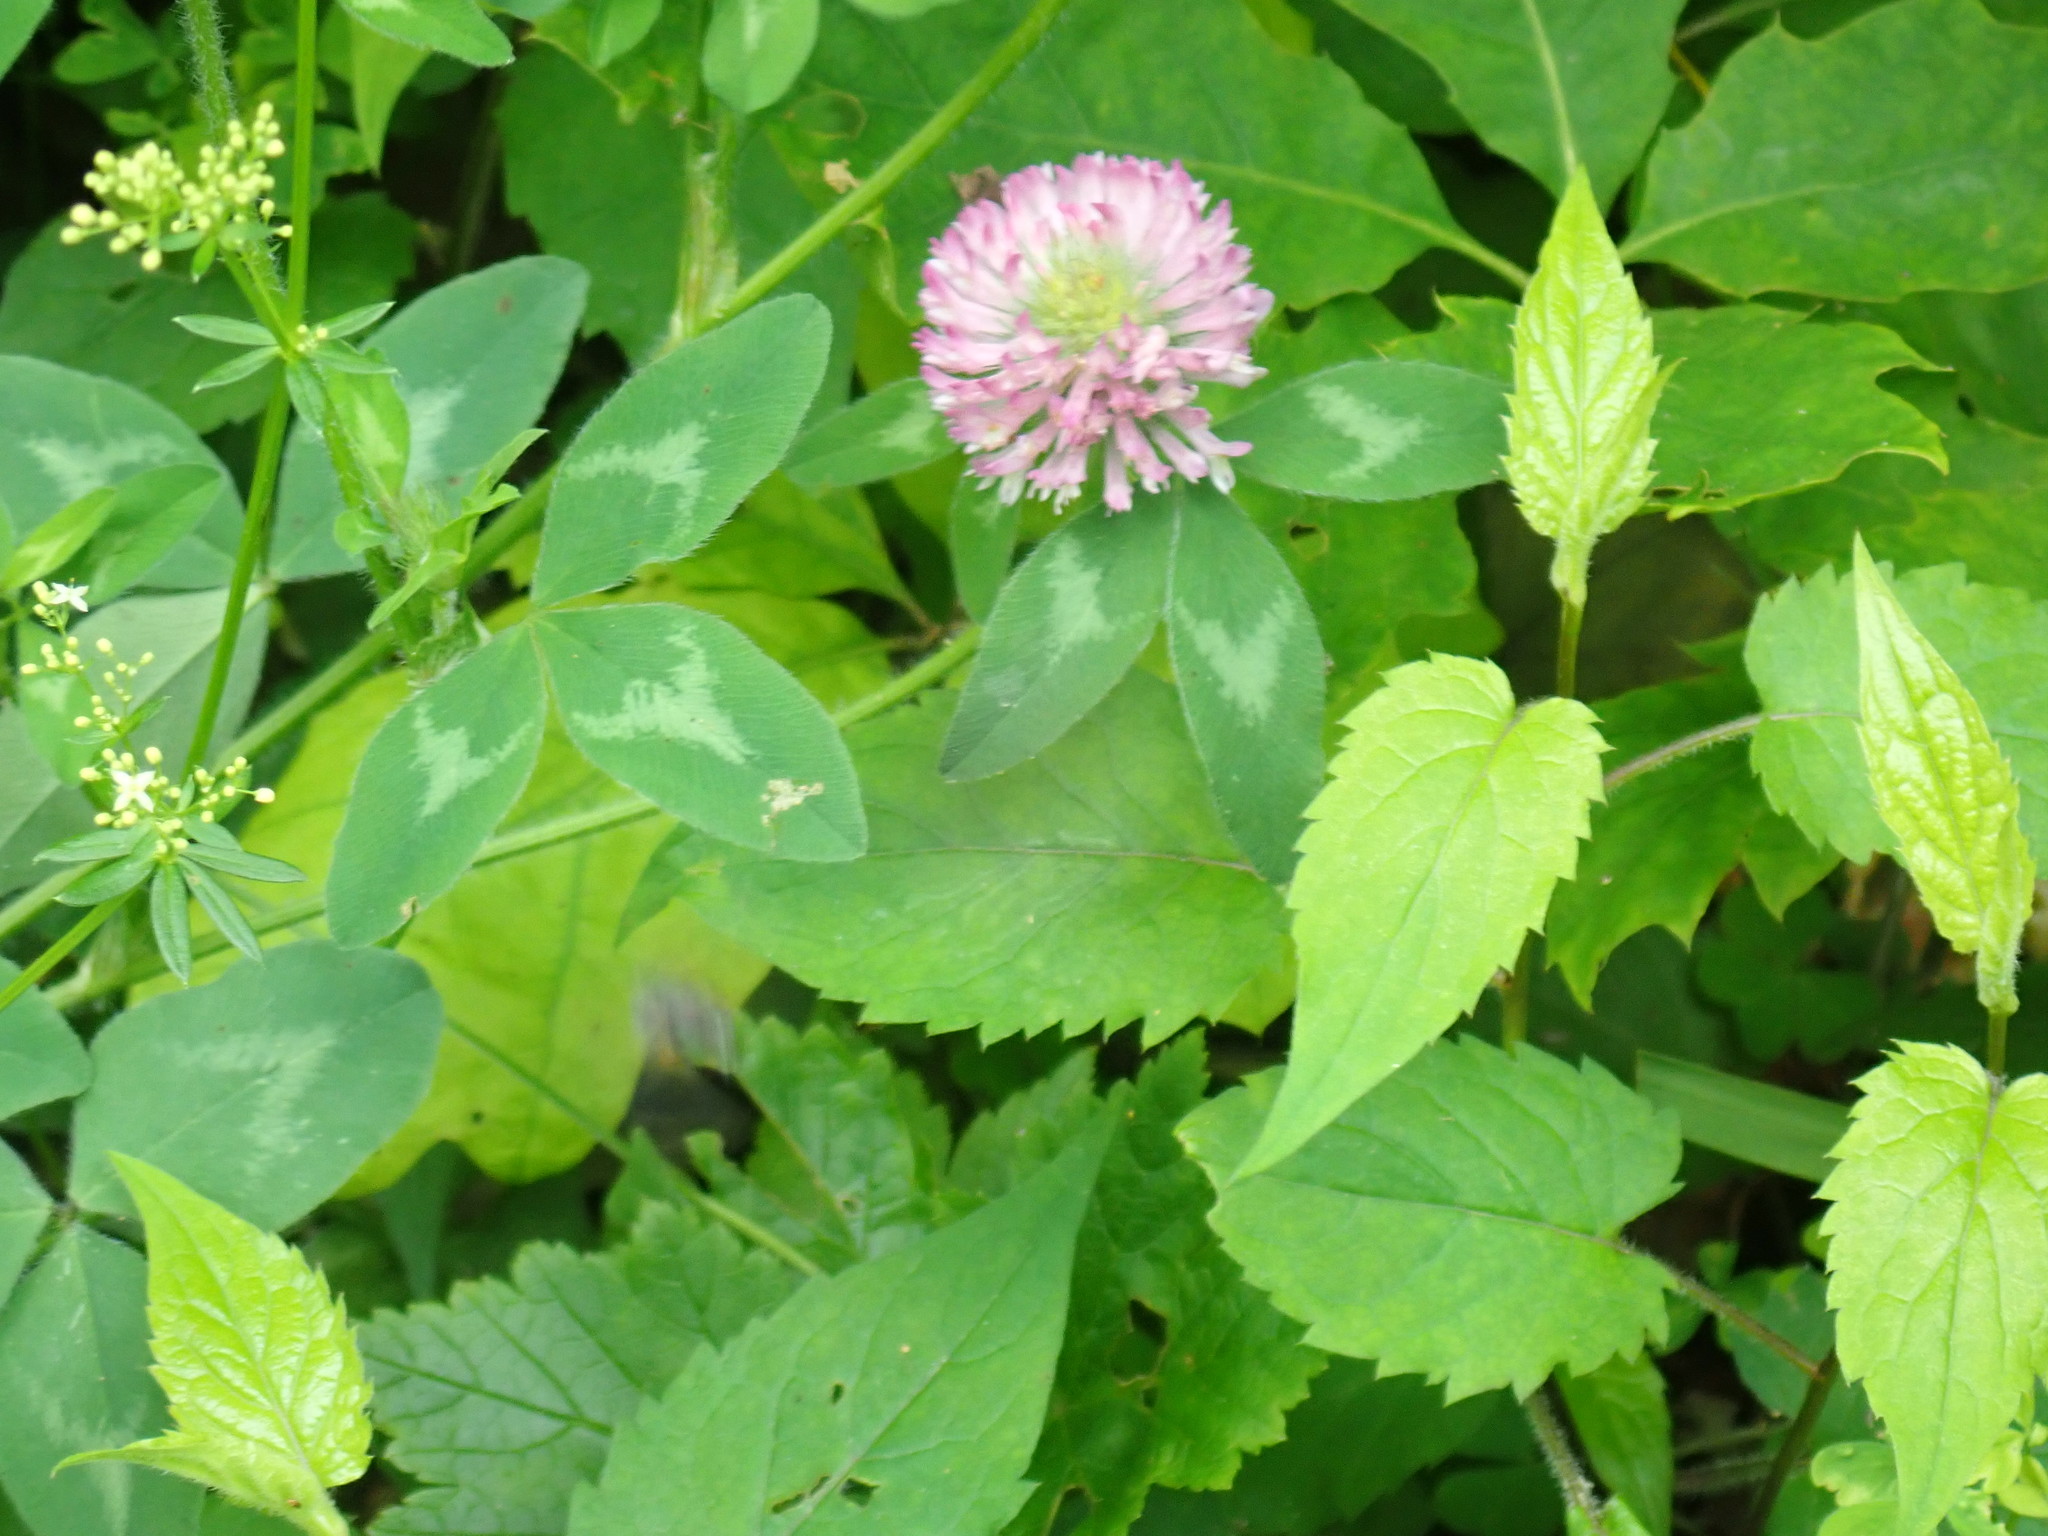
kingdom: Plantae
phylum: Tracheophyta
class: Magnoliopsida
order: Fabales
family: Fabaceae
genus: Trifolium
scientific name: Trifolium pratense
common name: Red clover
